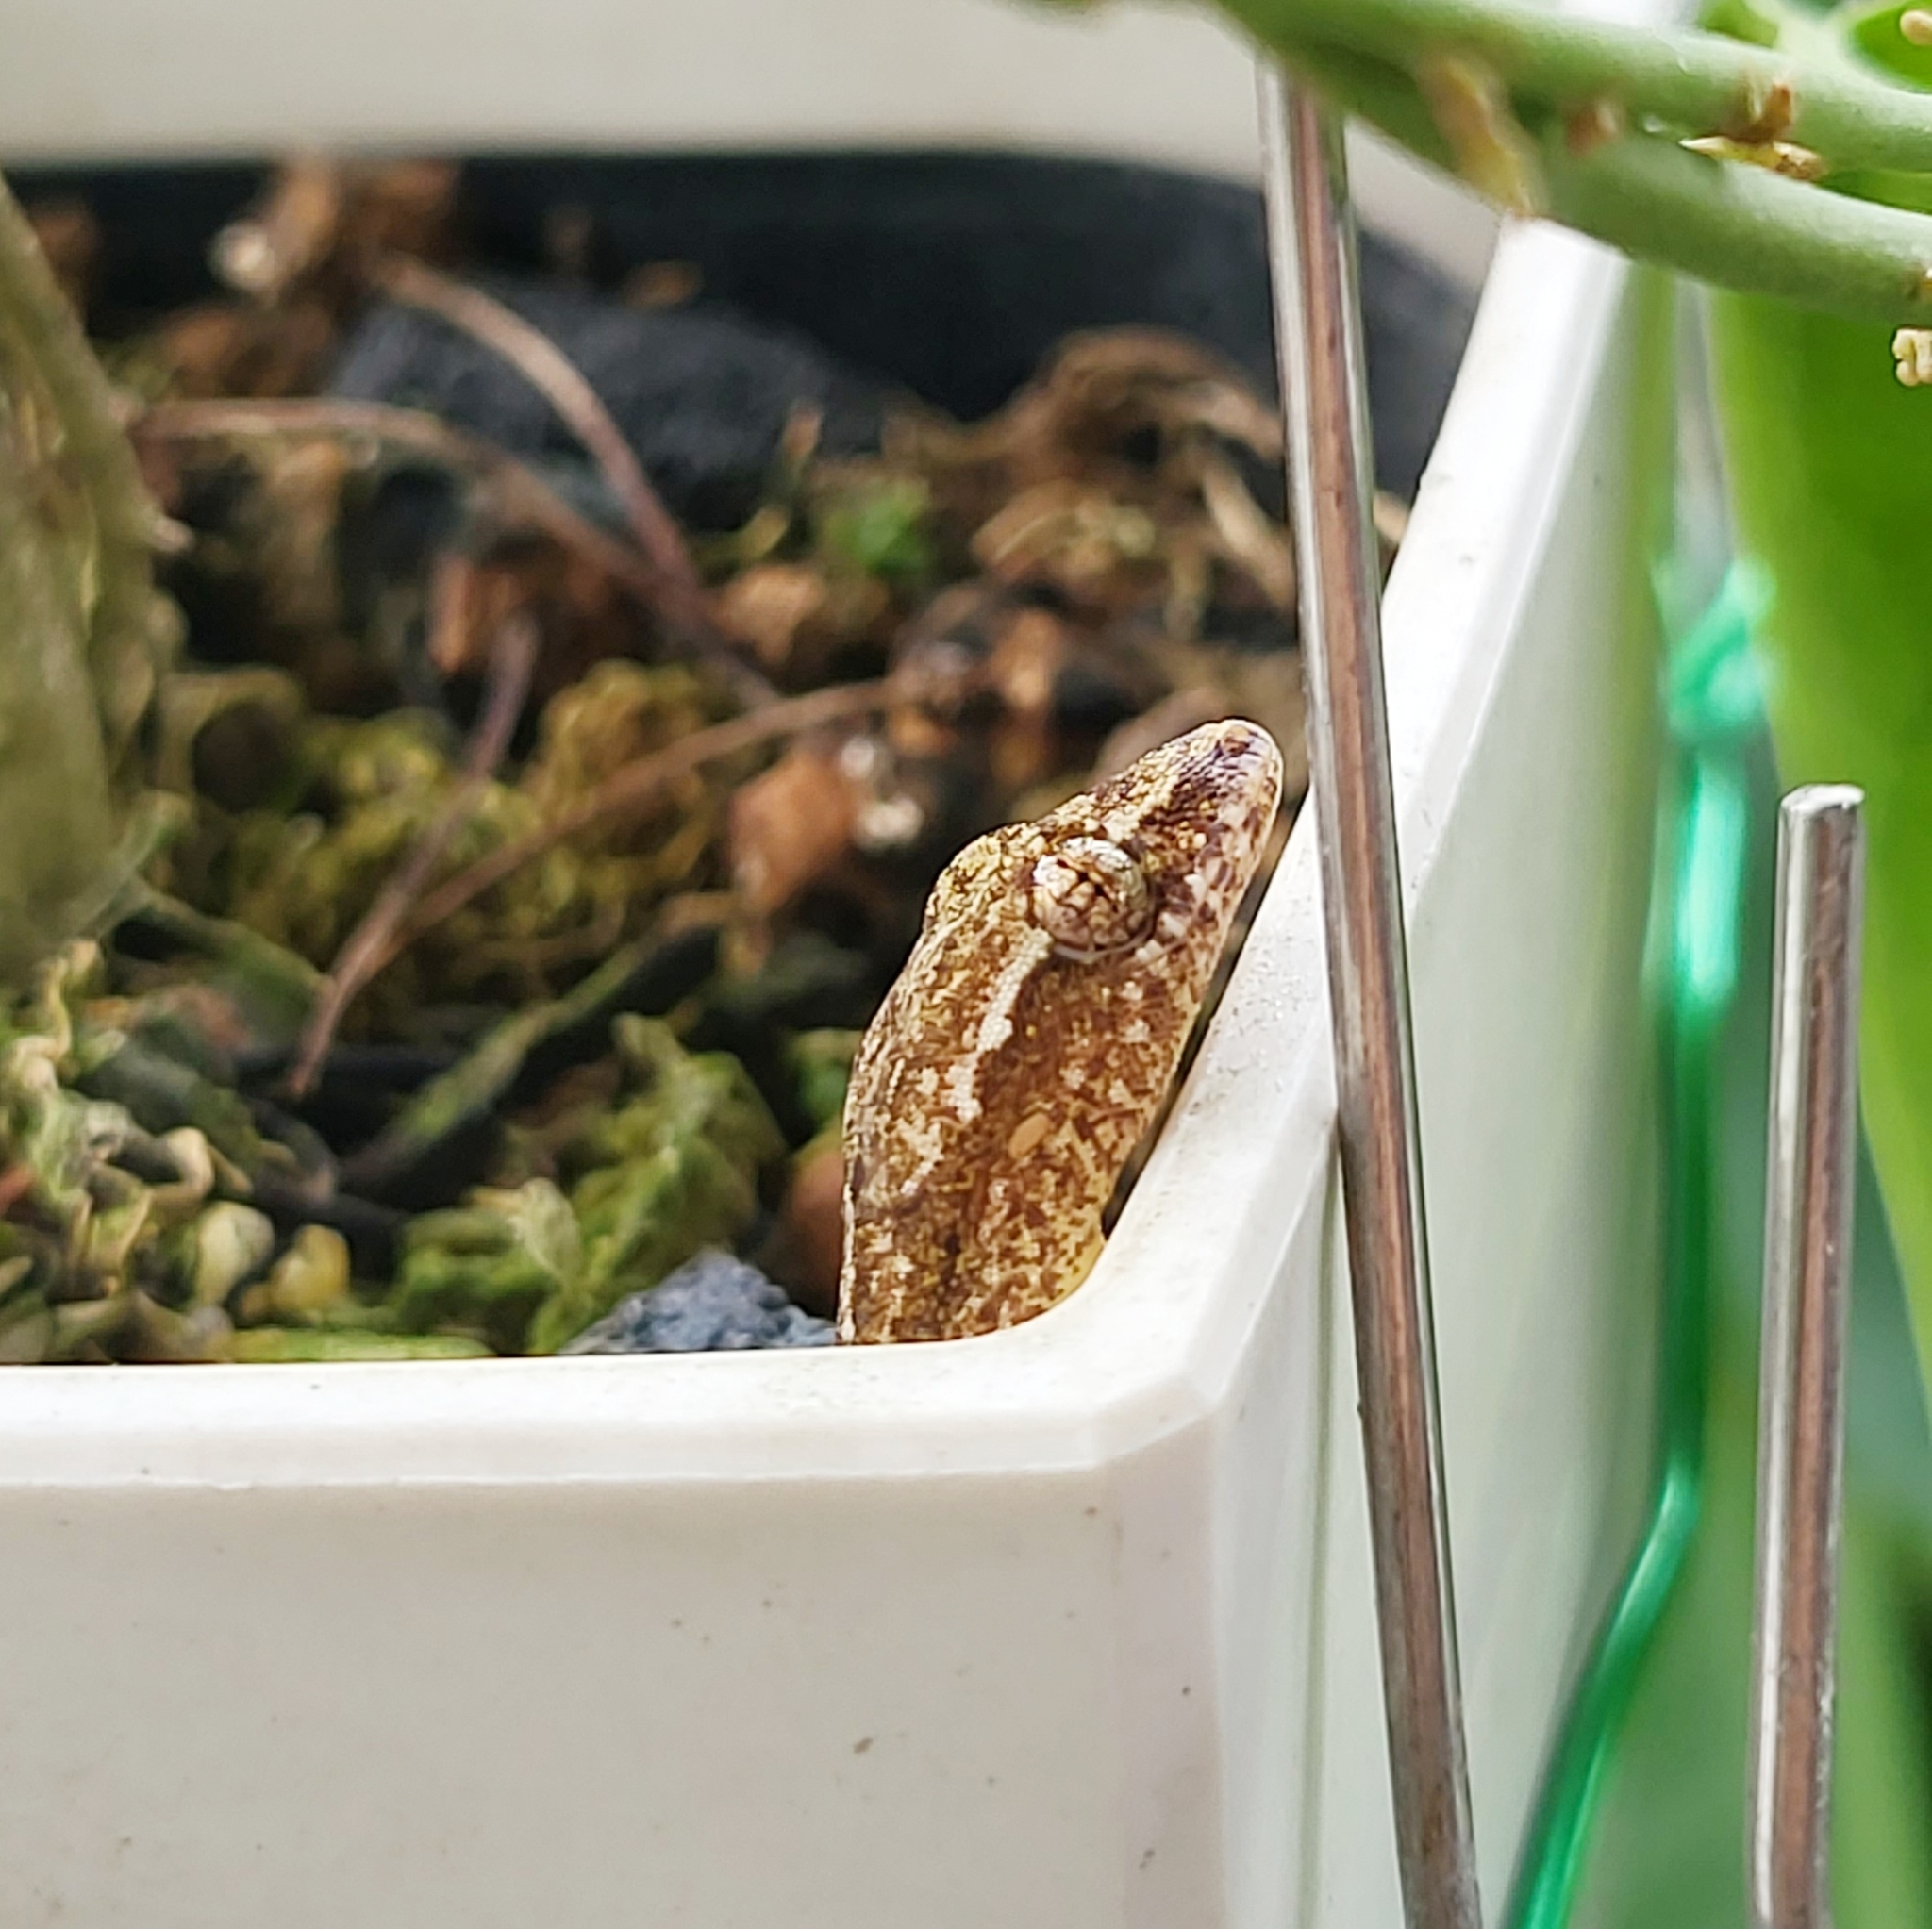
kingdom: Animalia
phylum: Chordata
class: Squamata
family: Gekkonidae
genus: Lepidodactylus
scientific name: Lepidodactylus lugubris
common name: Mourning gecko
